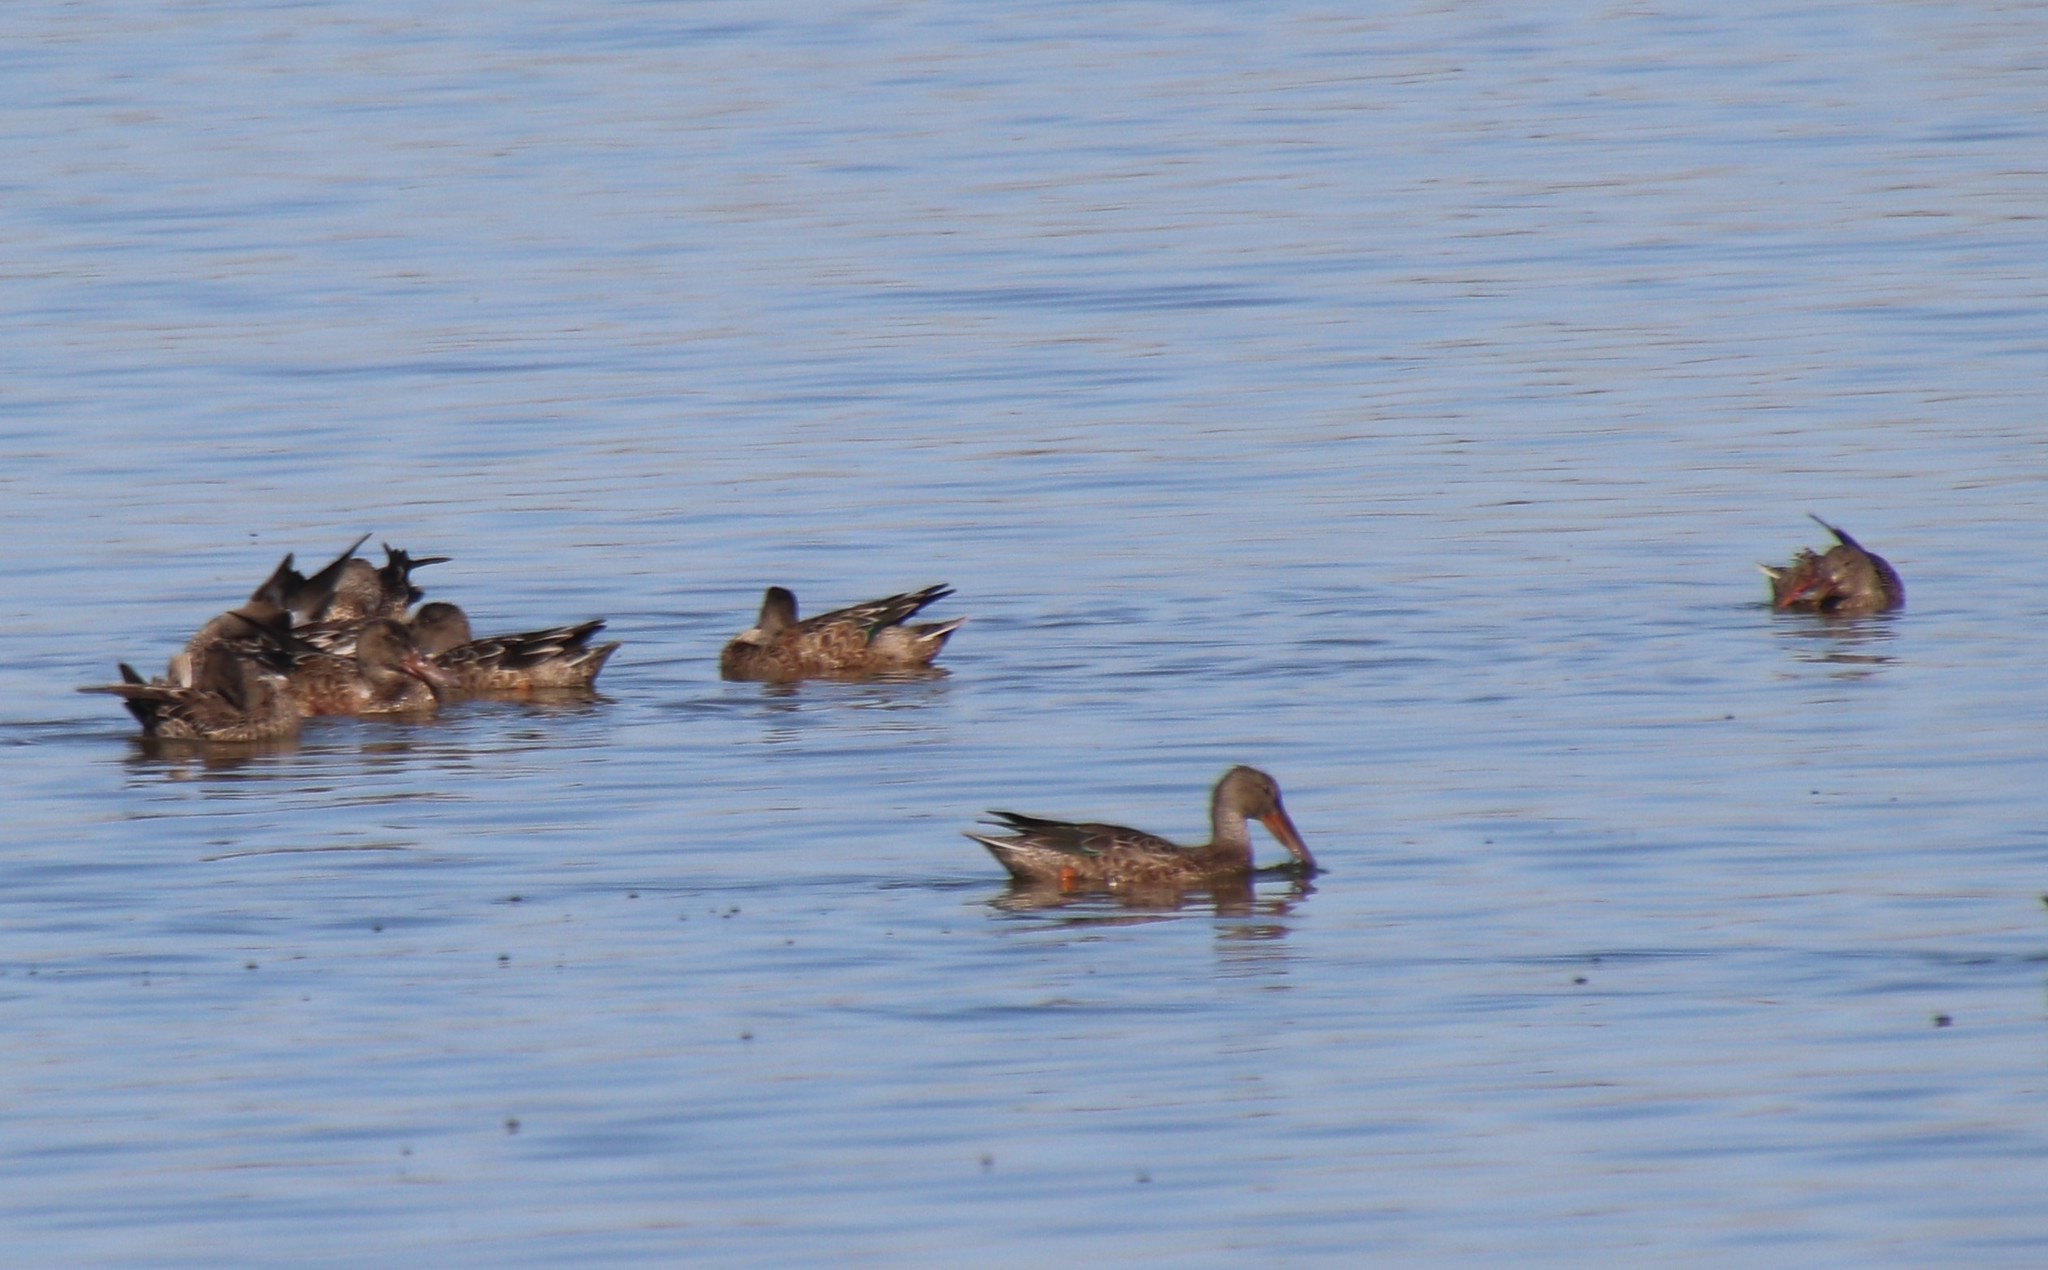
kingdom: Animalia
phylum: Chordata
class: Aves
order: Anseriformes
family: Anatidae
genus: Spatula
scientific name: Spatula clypeata
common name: Northern shoveler
